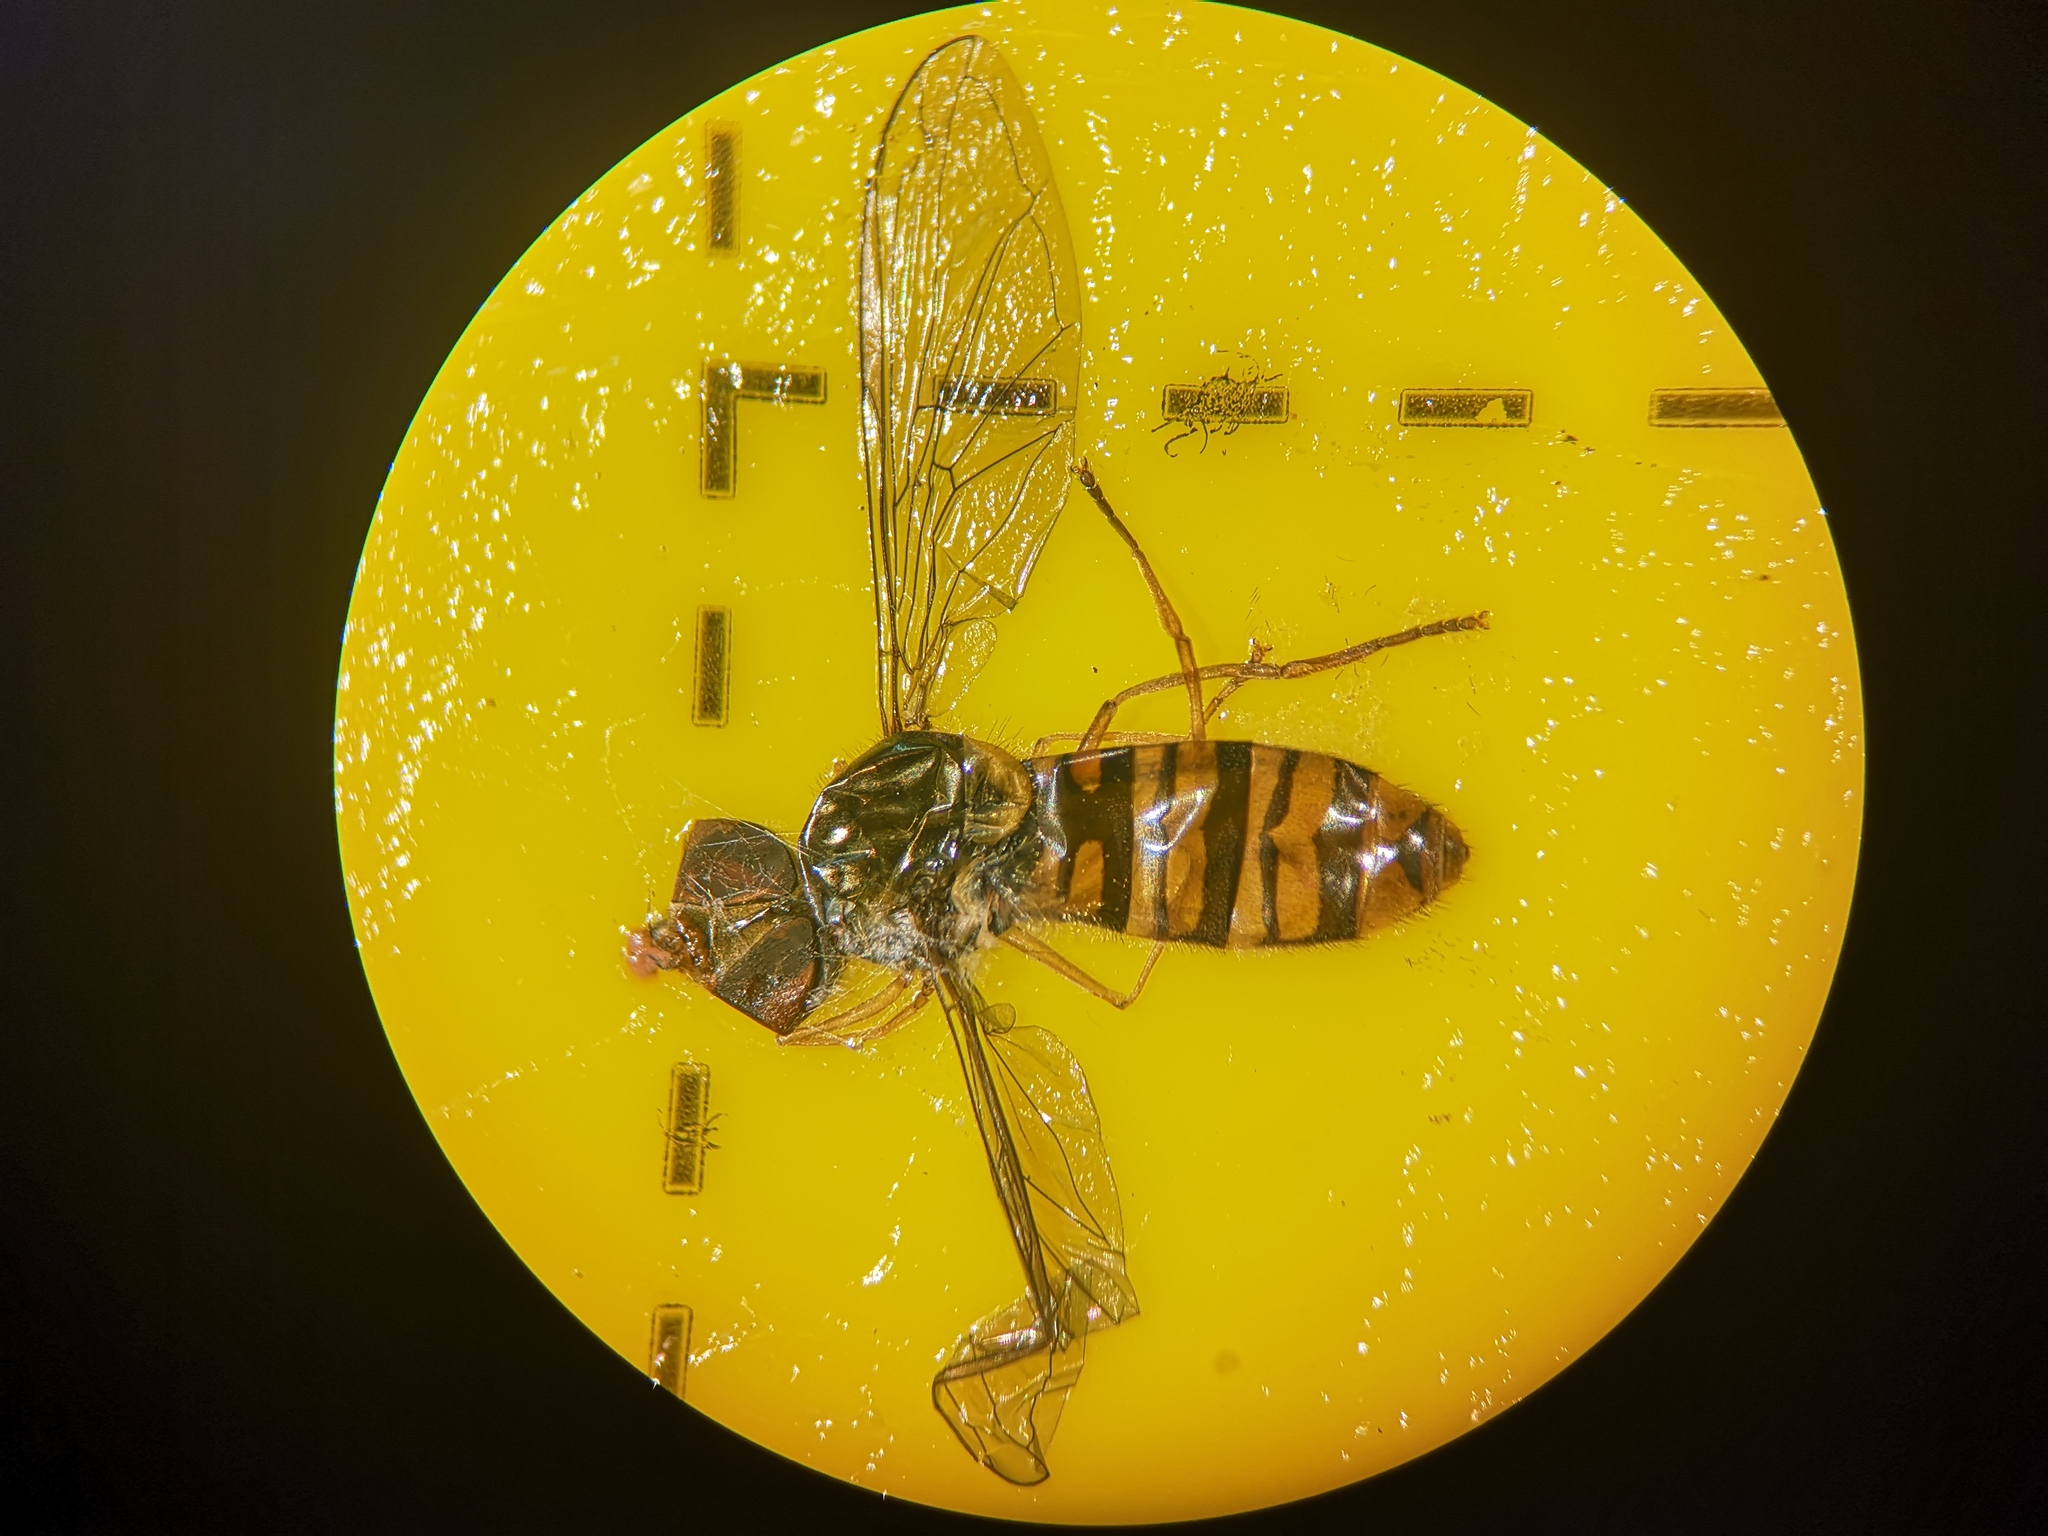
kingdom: Animalia
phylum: Arthropoda
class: Insecta
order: Diptera
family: Syrphidae
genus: Episyrphus
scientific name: Episyrphus balteatus
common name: Marmalade hoverfly
